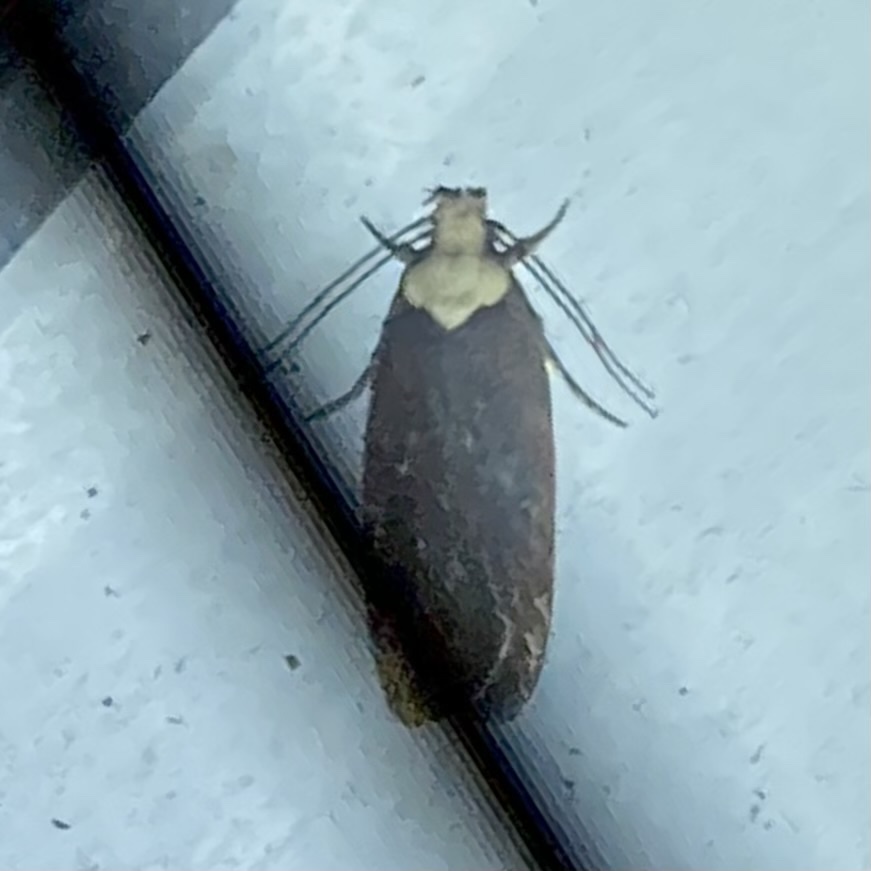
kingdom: Animalia
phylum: Arthropoda
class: Insecta
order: Lepidoptera
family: Depressariidae
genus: Depressaria
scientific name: Depressaria depressana
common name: Lost flat-body
